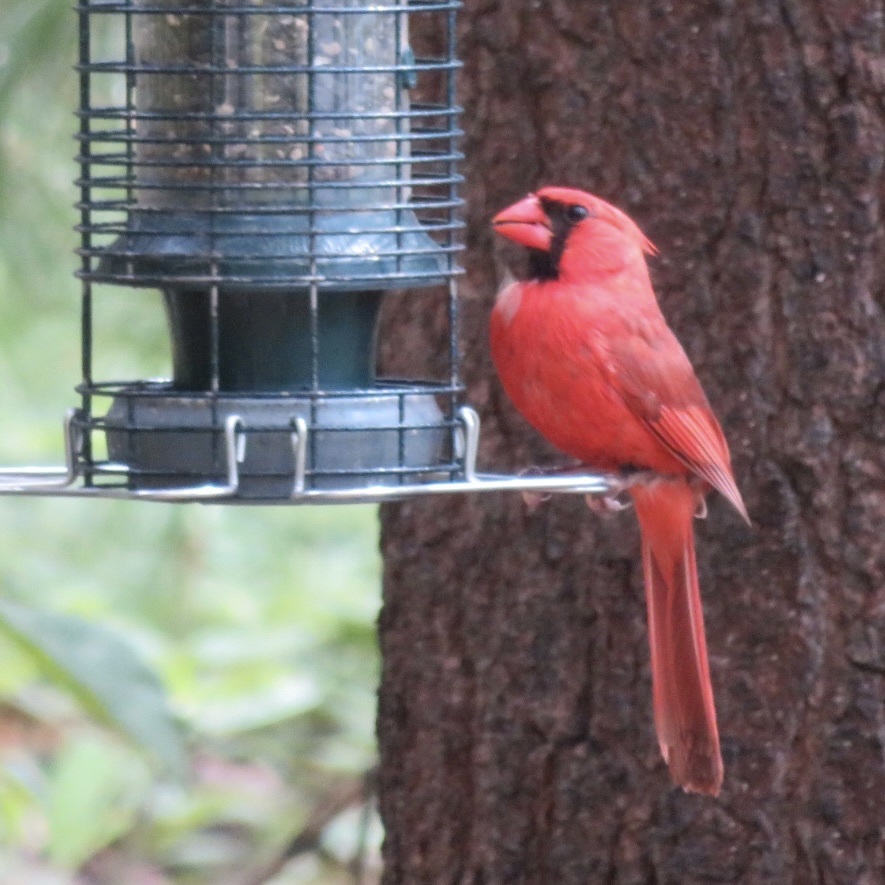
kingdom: Animalia
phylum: Chordata
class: Aves
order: Passeriformes
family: Cardinalidae
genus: Cardinalis
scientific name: Cardinalis cardinalis
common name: Northern cardinal
